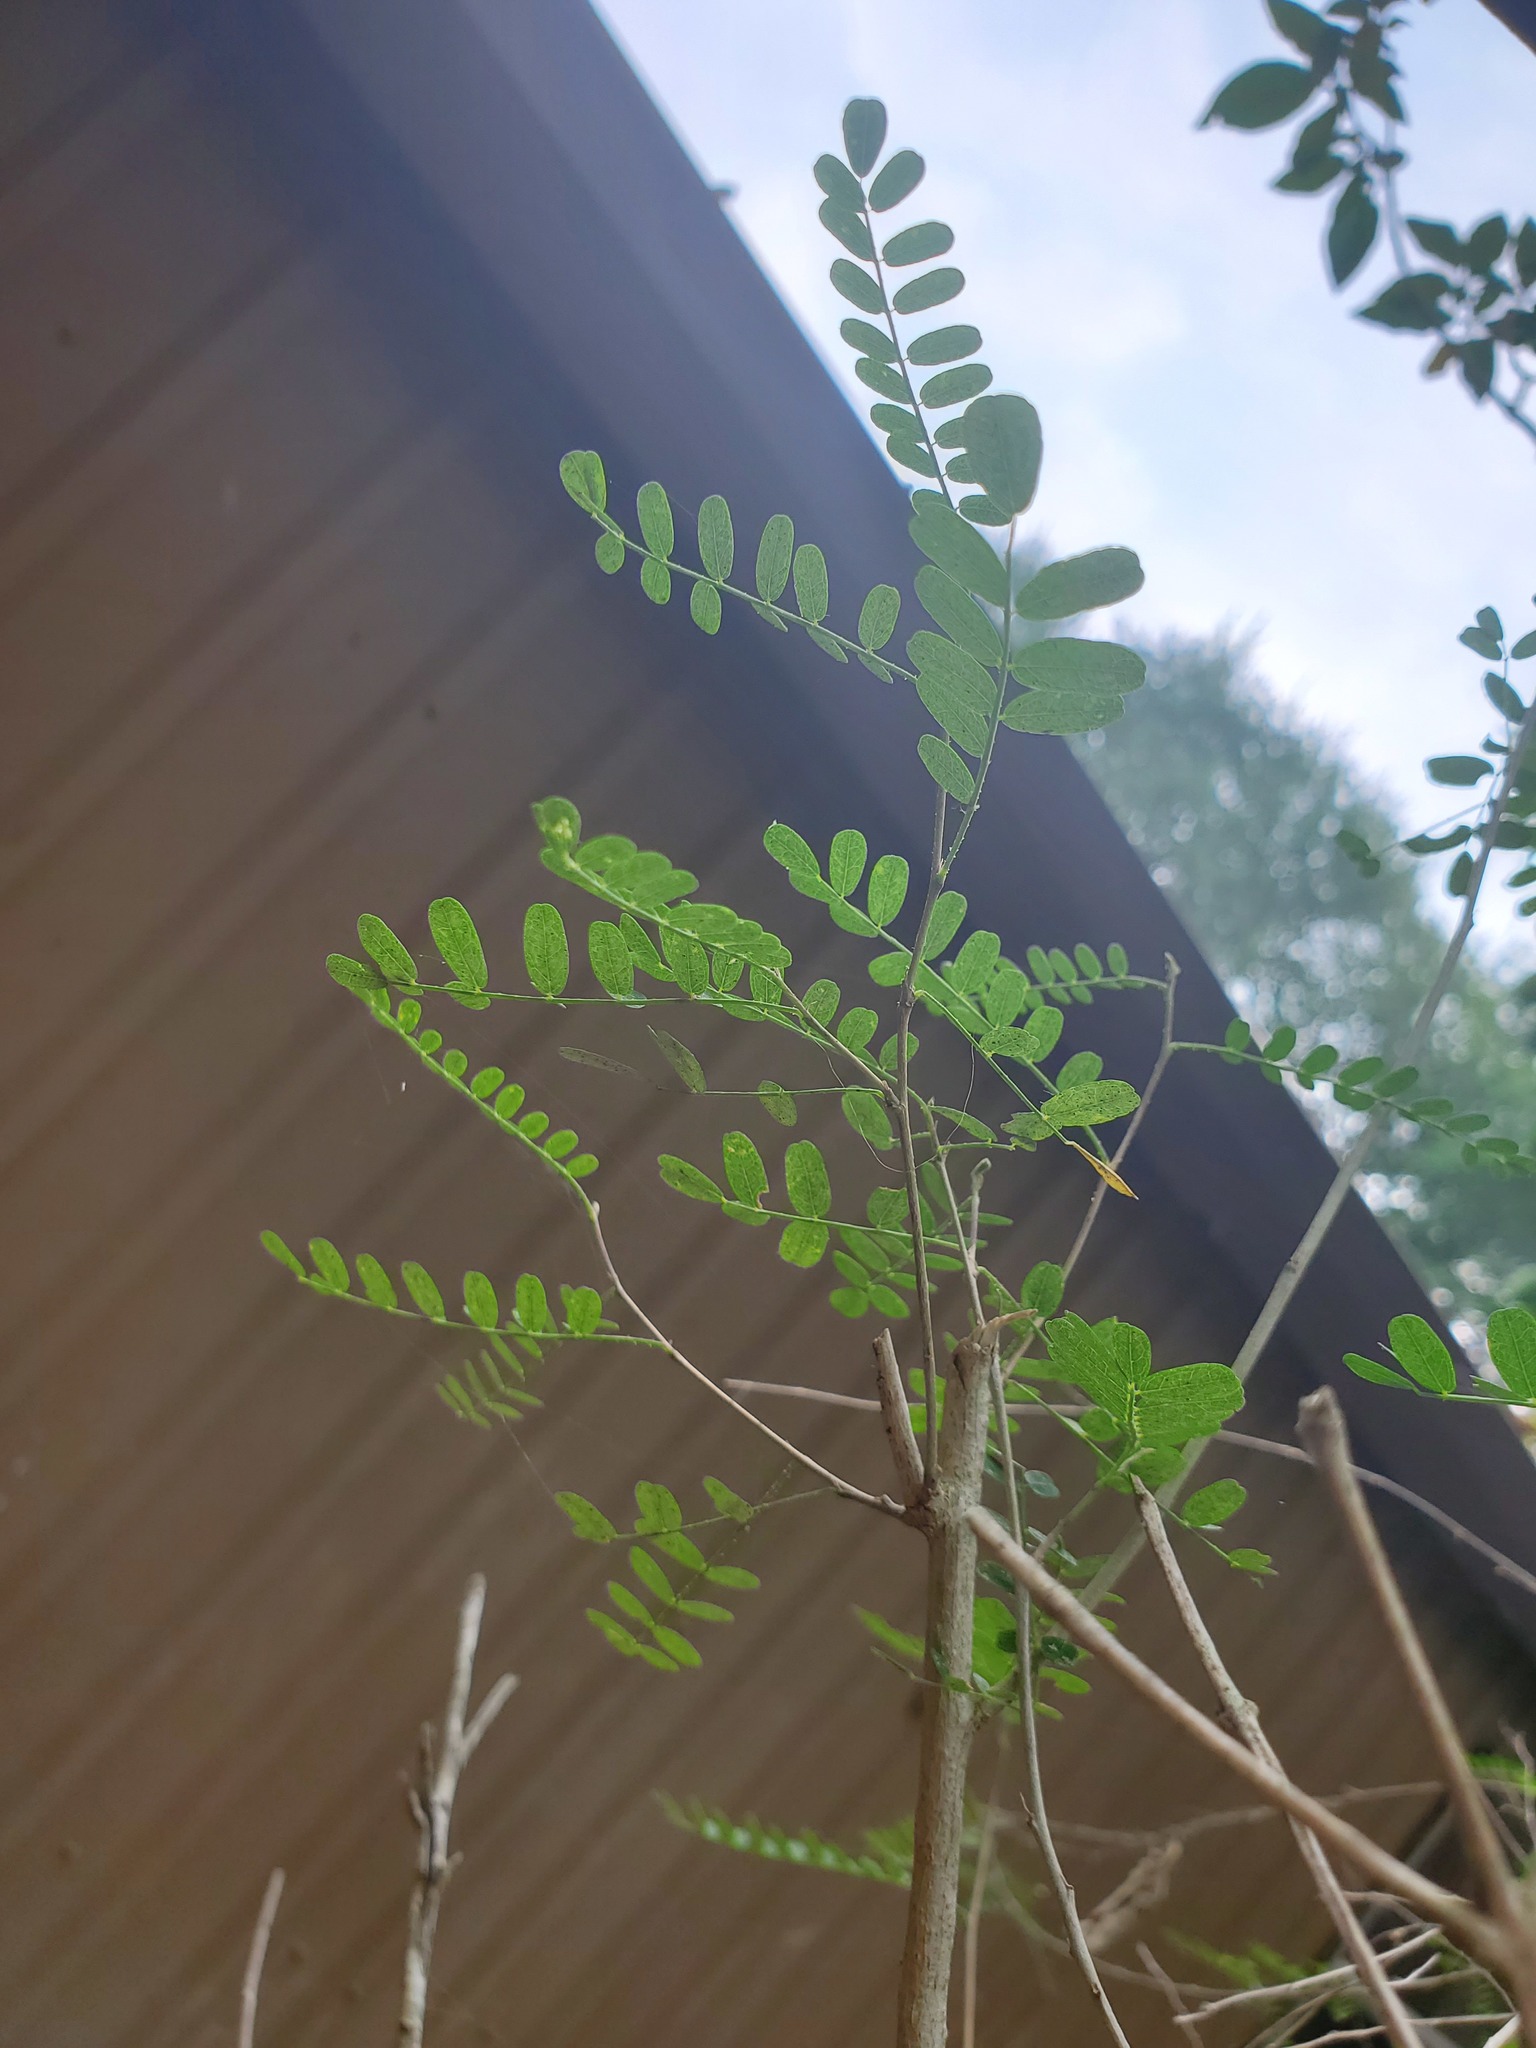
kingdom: Plantae
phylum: Tracheophyta
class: Magnoliopsida
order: Fabales
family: Fabaceae
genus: Eysenhardtia
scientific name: Eysenhardtia texana
